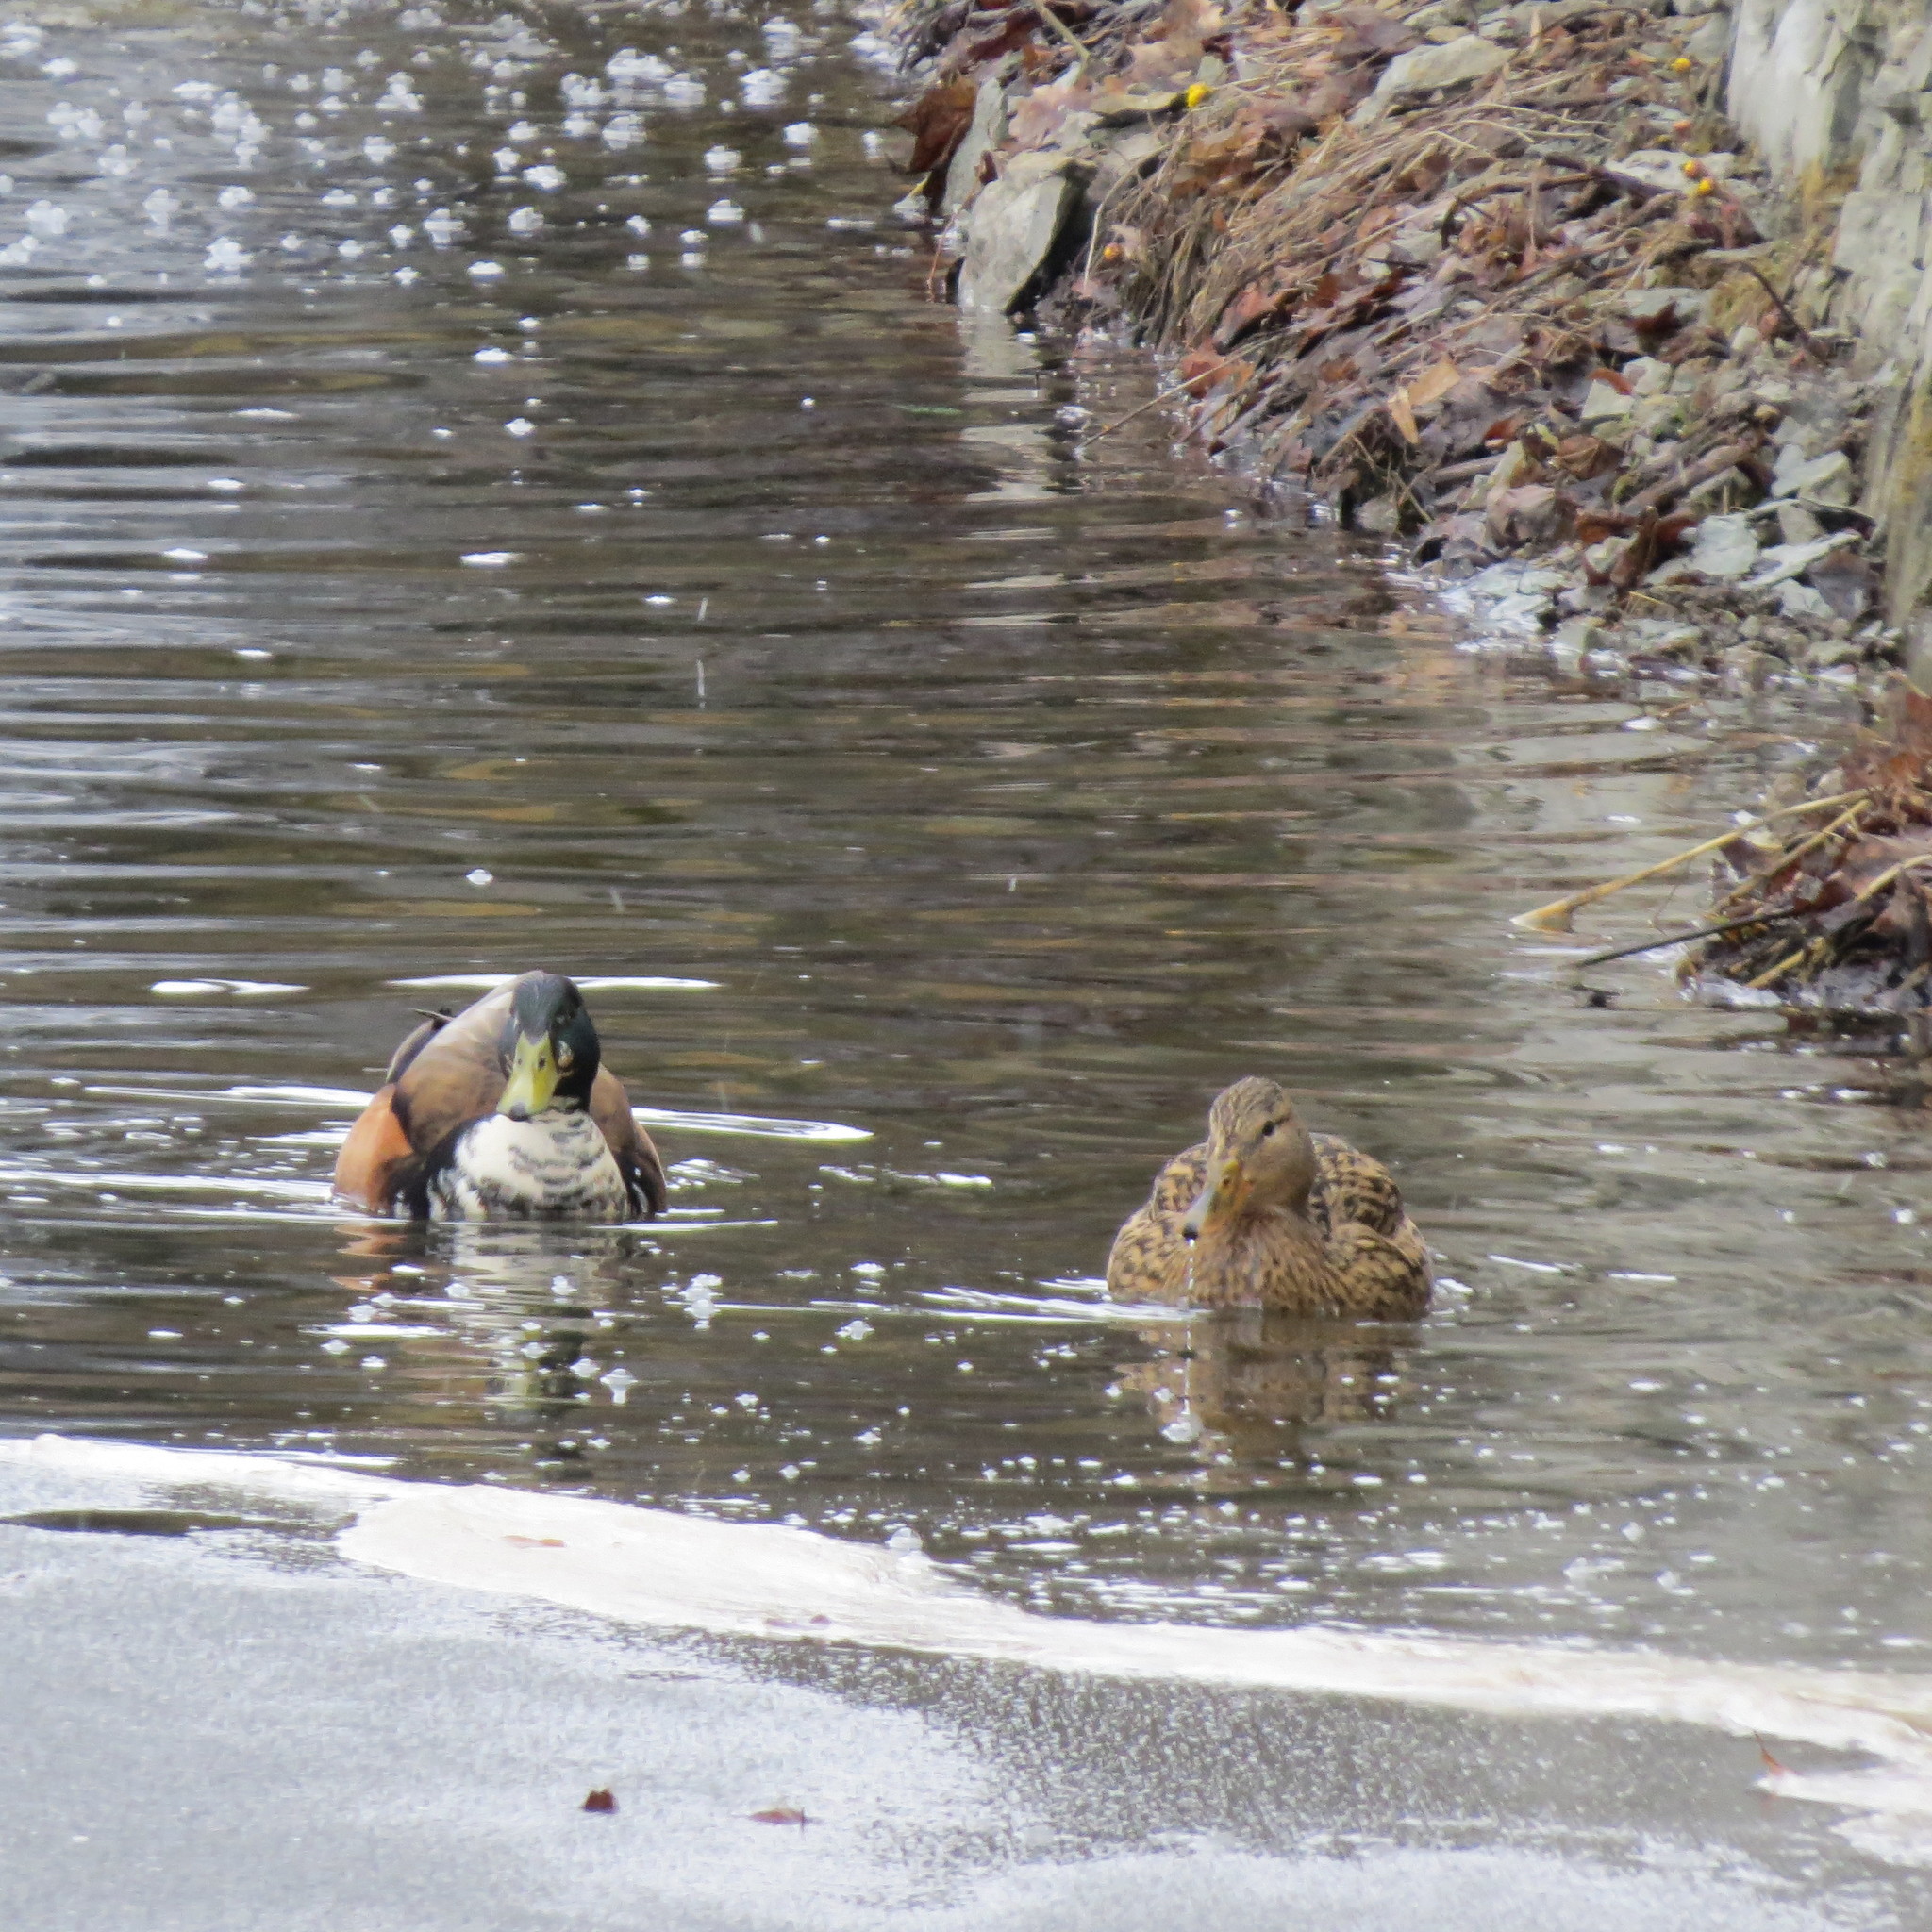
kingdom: Animalia
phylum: Chordata
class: Aves
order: Anseriformes
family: Anatidae
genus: Anas
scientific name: Anas platyrhynchos
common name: Mallard
